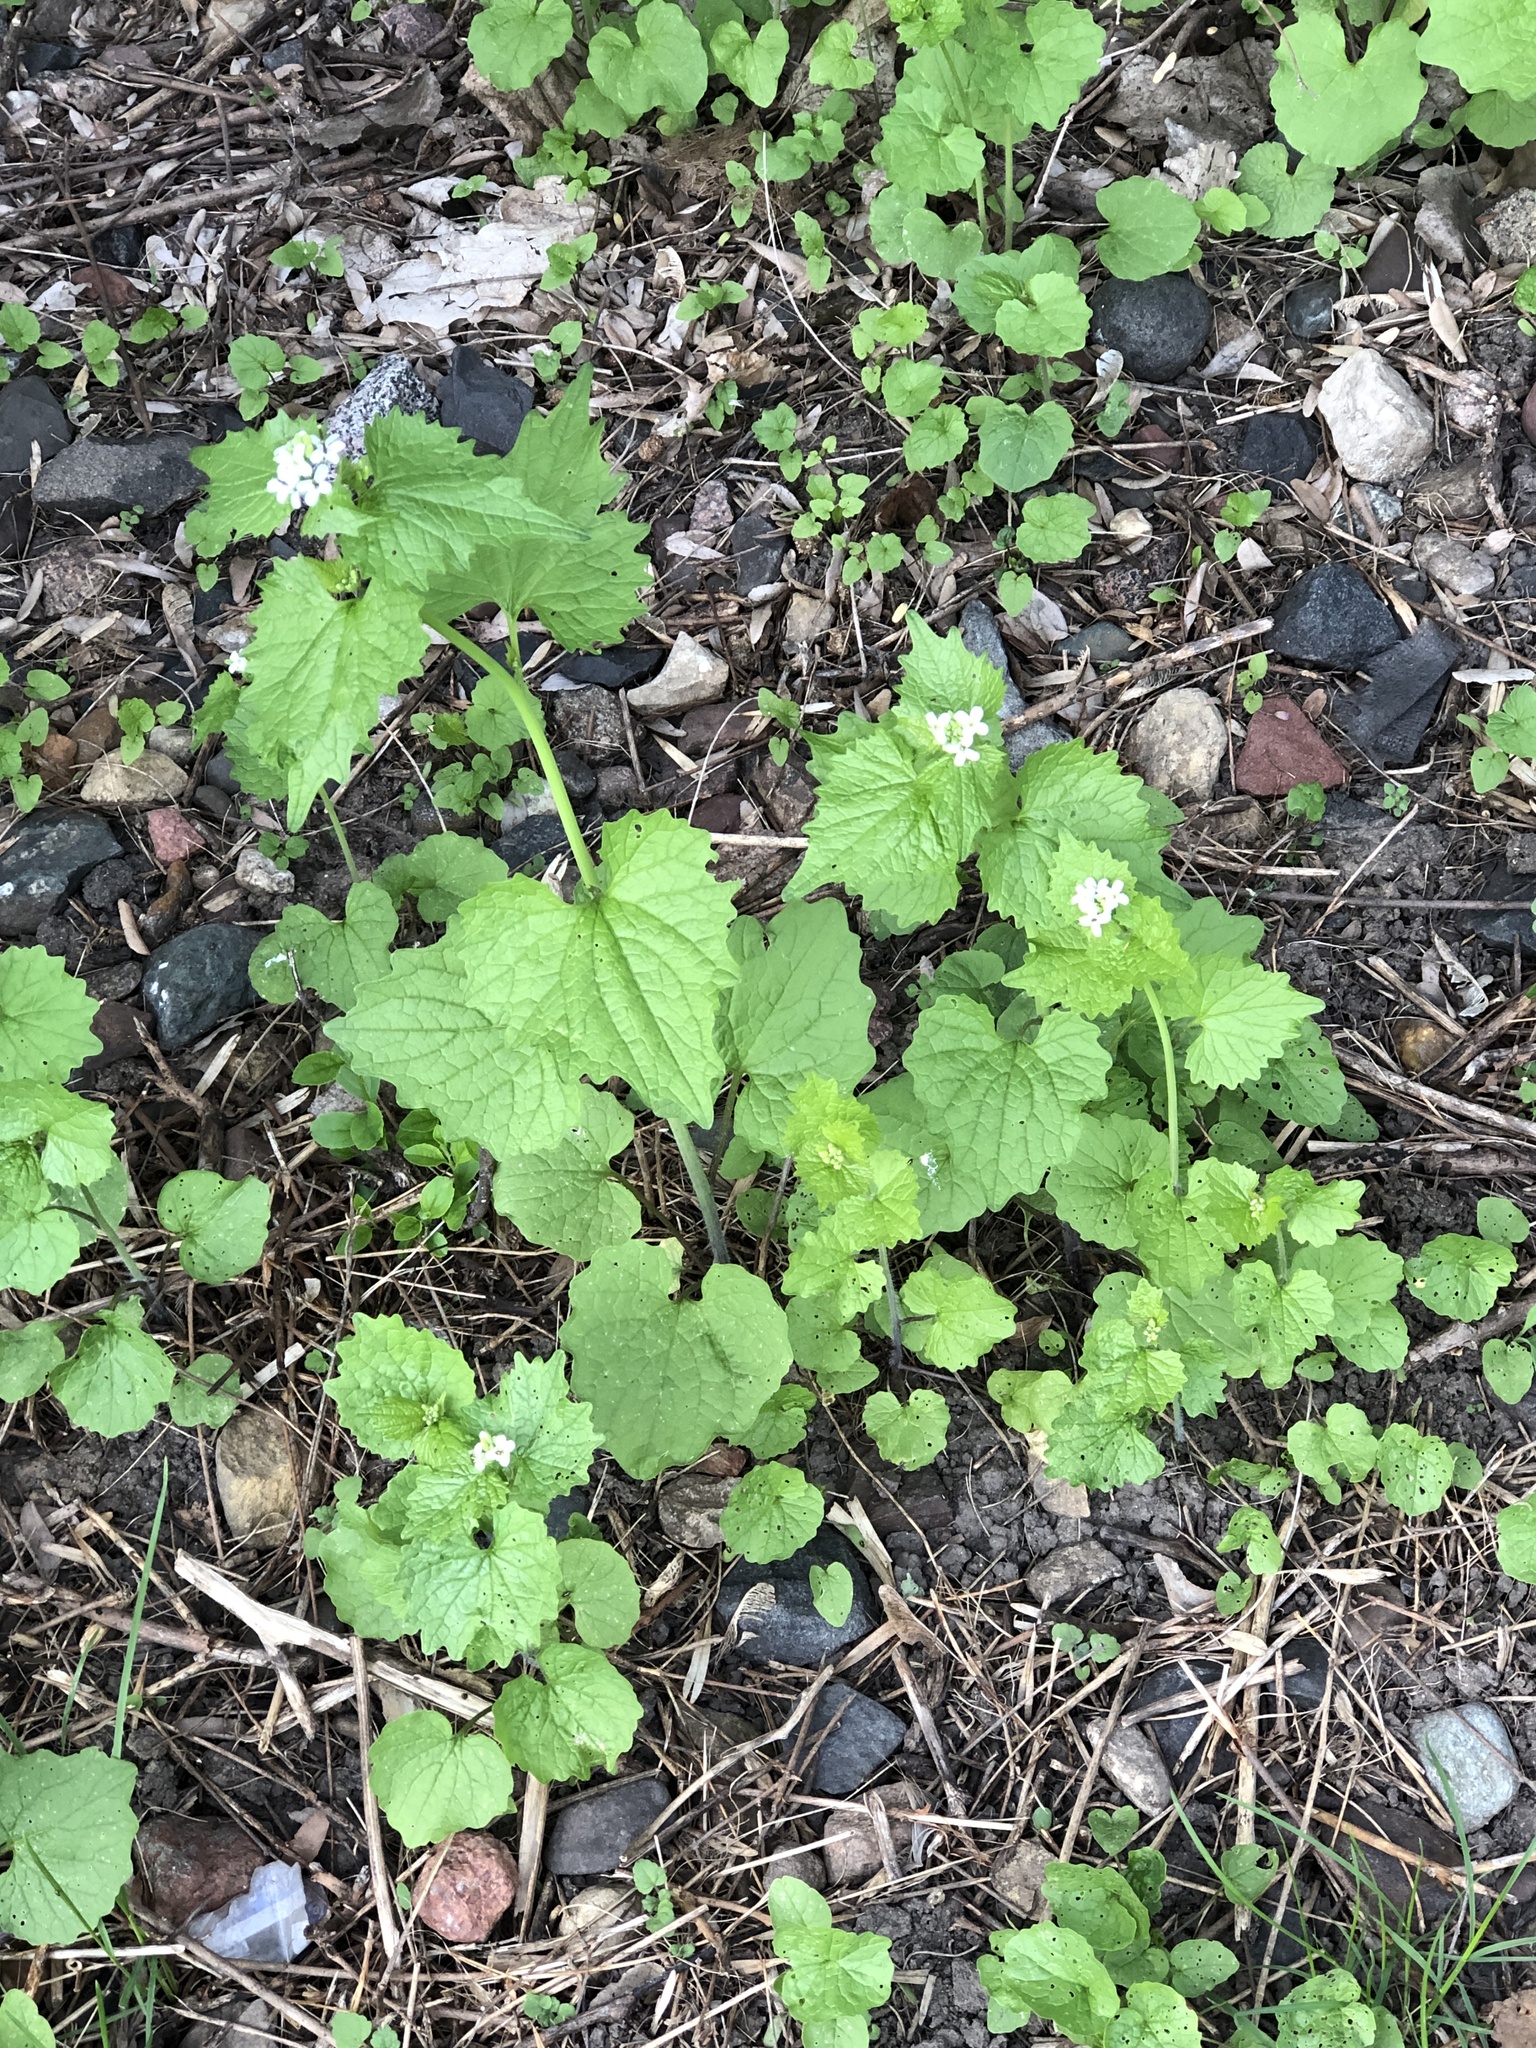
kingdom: Plantae
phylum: Tracheophyta
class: Magnoliopsida
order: Brassicales
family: Brassicaceae
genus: Alliaria
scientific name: Alliaria petiolata
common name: Garlic mustard
